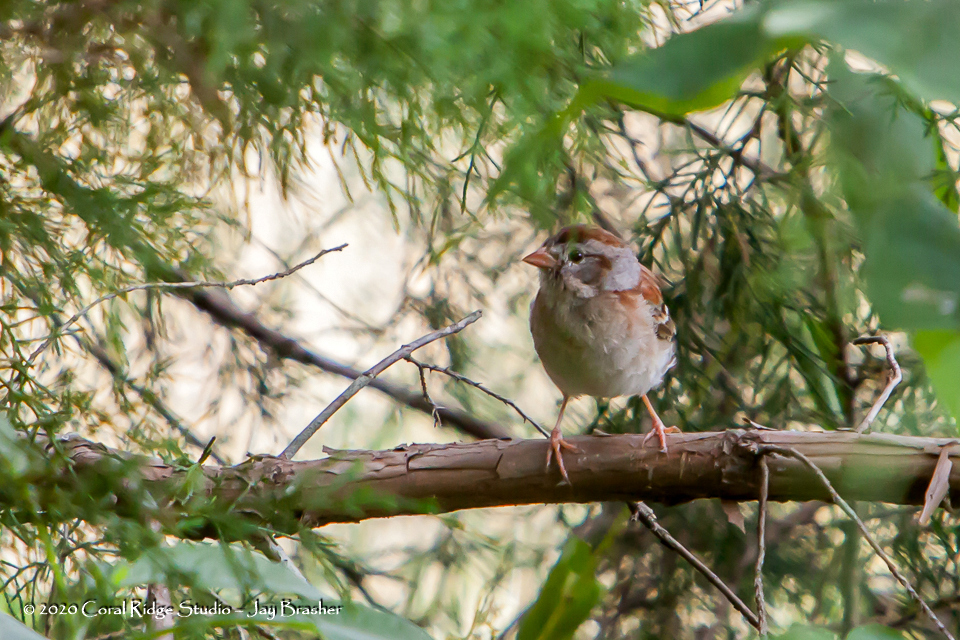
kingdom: Animalia
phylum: Chordata
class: Aves
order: Passeriformes
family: Passerellidae
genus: Spizella
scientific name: Spizella pusilla
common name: Field sparrow
